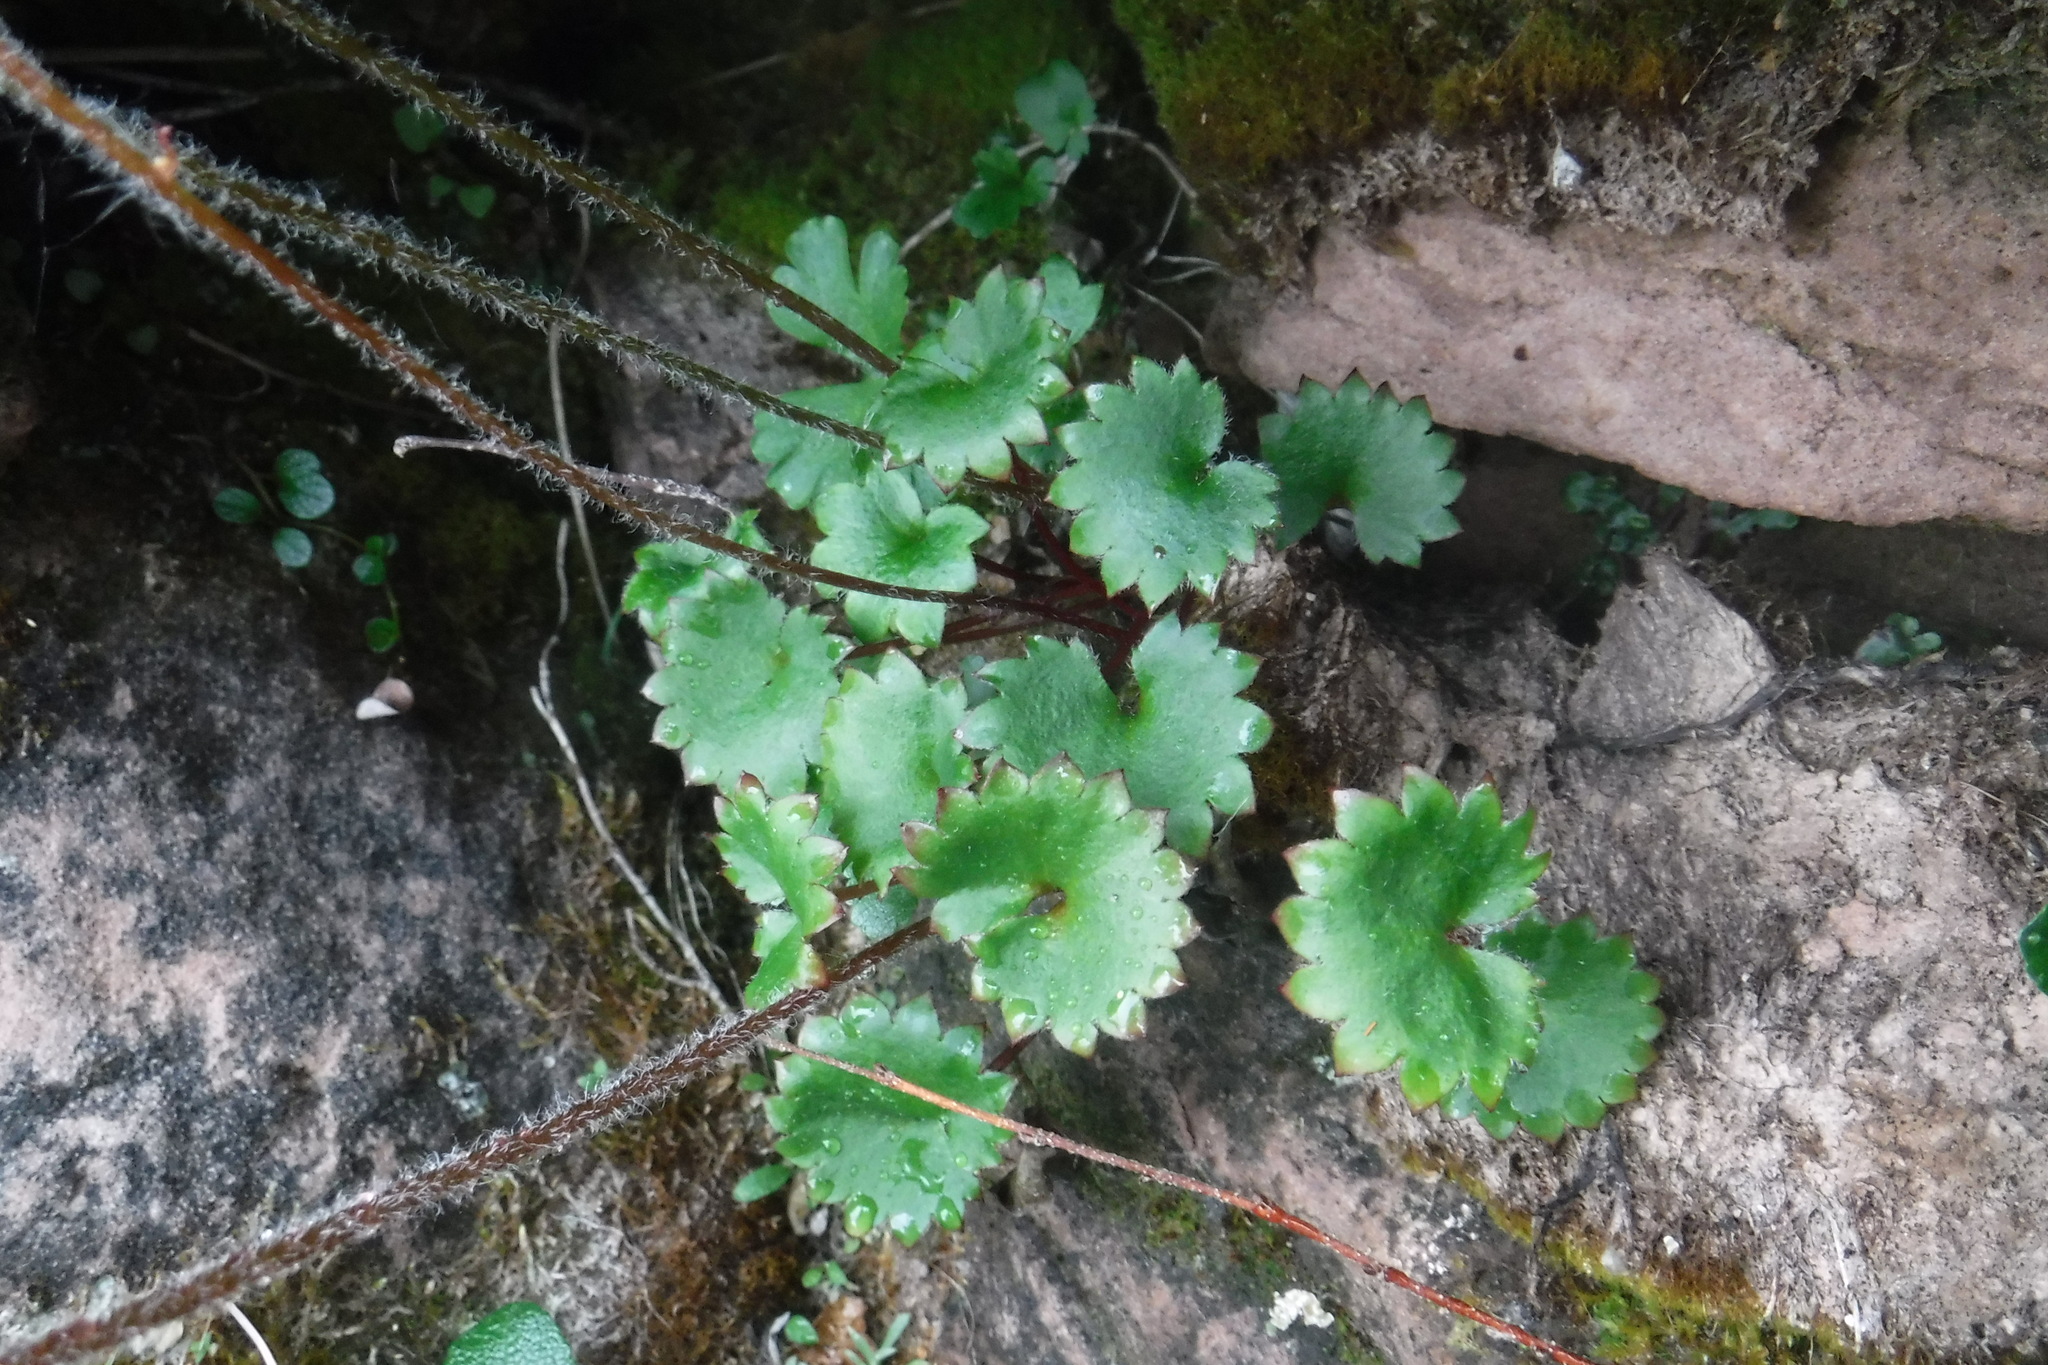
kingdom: Plantae
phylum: Tracheophyta
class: Magnoliopsida
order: Saxifragales
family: Saxifragaceae
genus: Micranthes
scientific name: Micranthes nelsoniana
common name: Nelson's saxifrage
